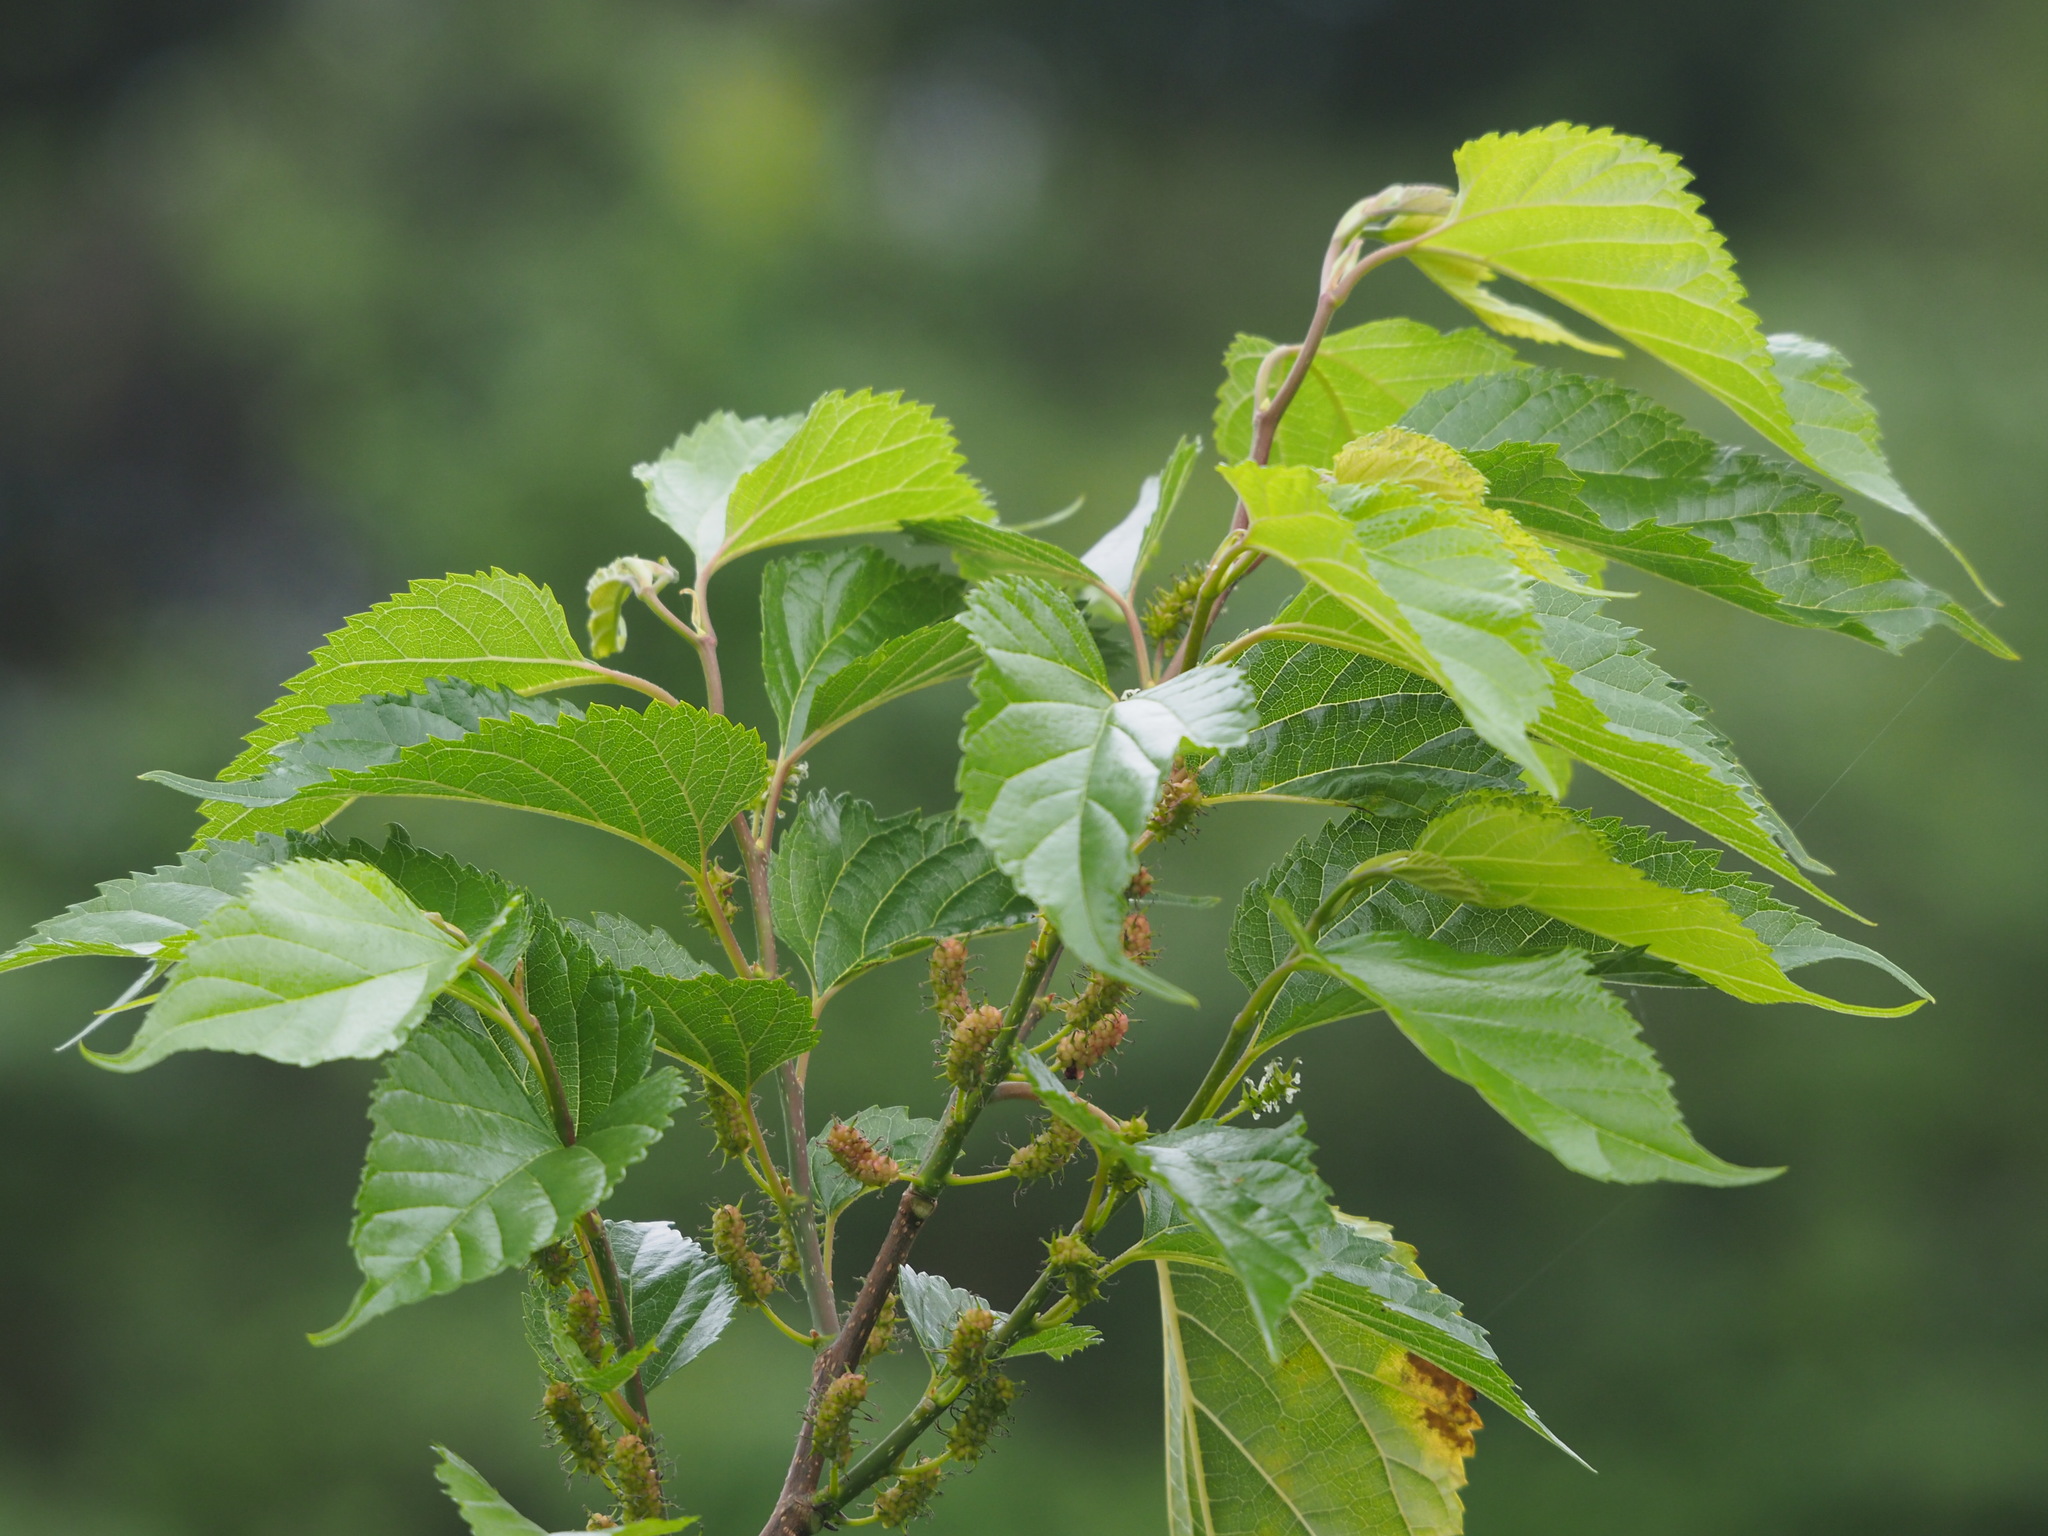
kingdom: Plantae
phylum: Tracheophyta
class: Magnoliopsida
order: Rosales
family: Moraceae
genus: Morus
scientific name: Morus indica
